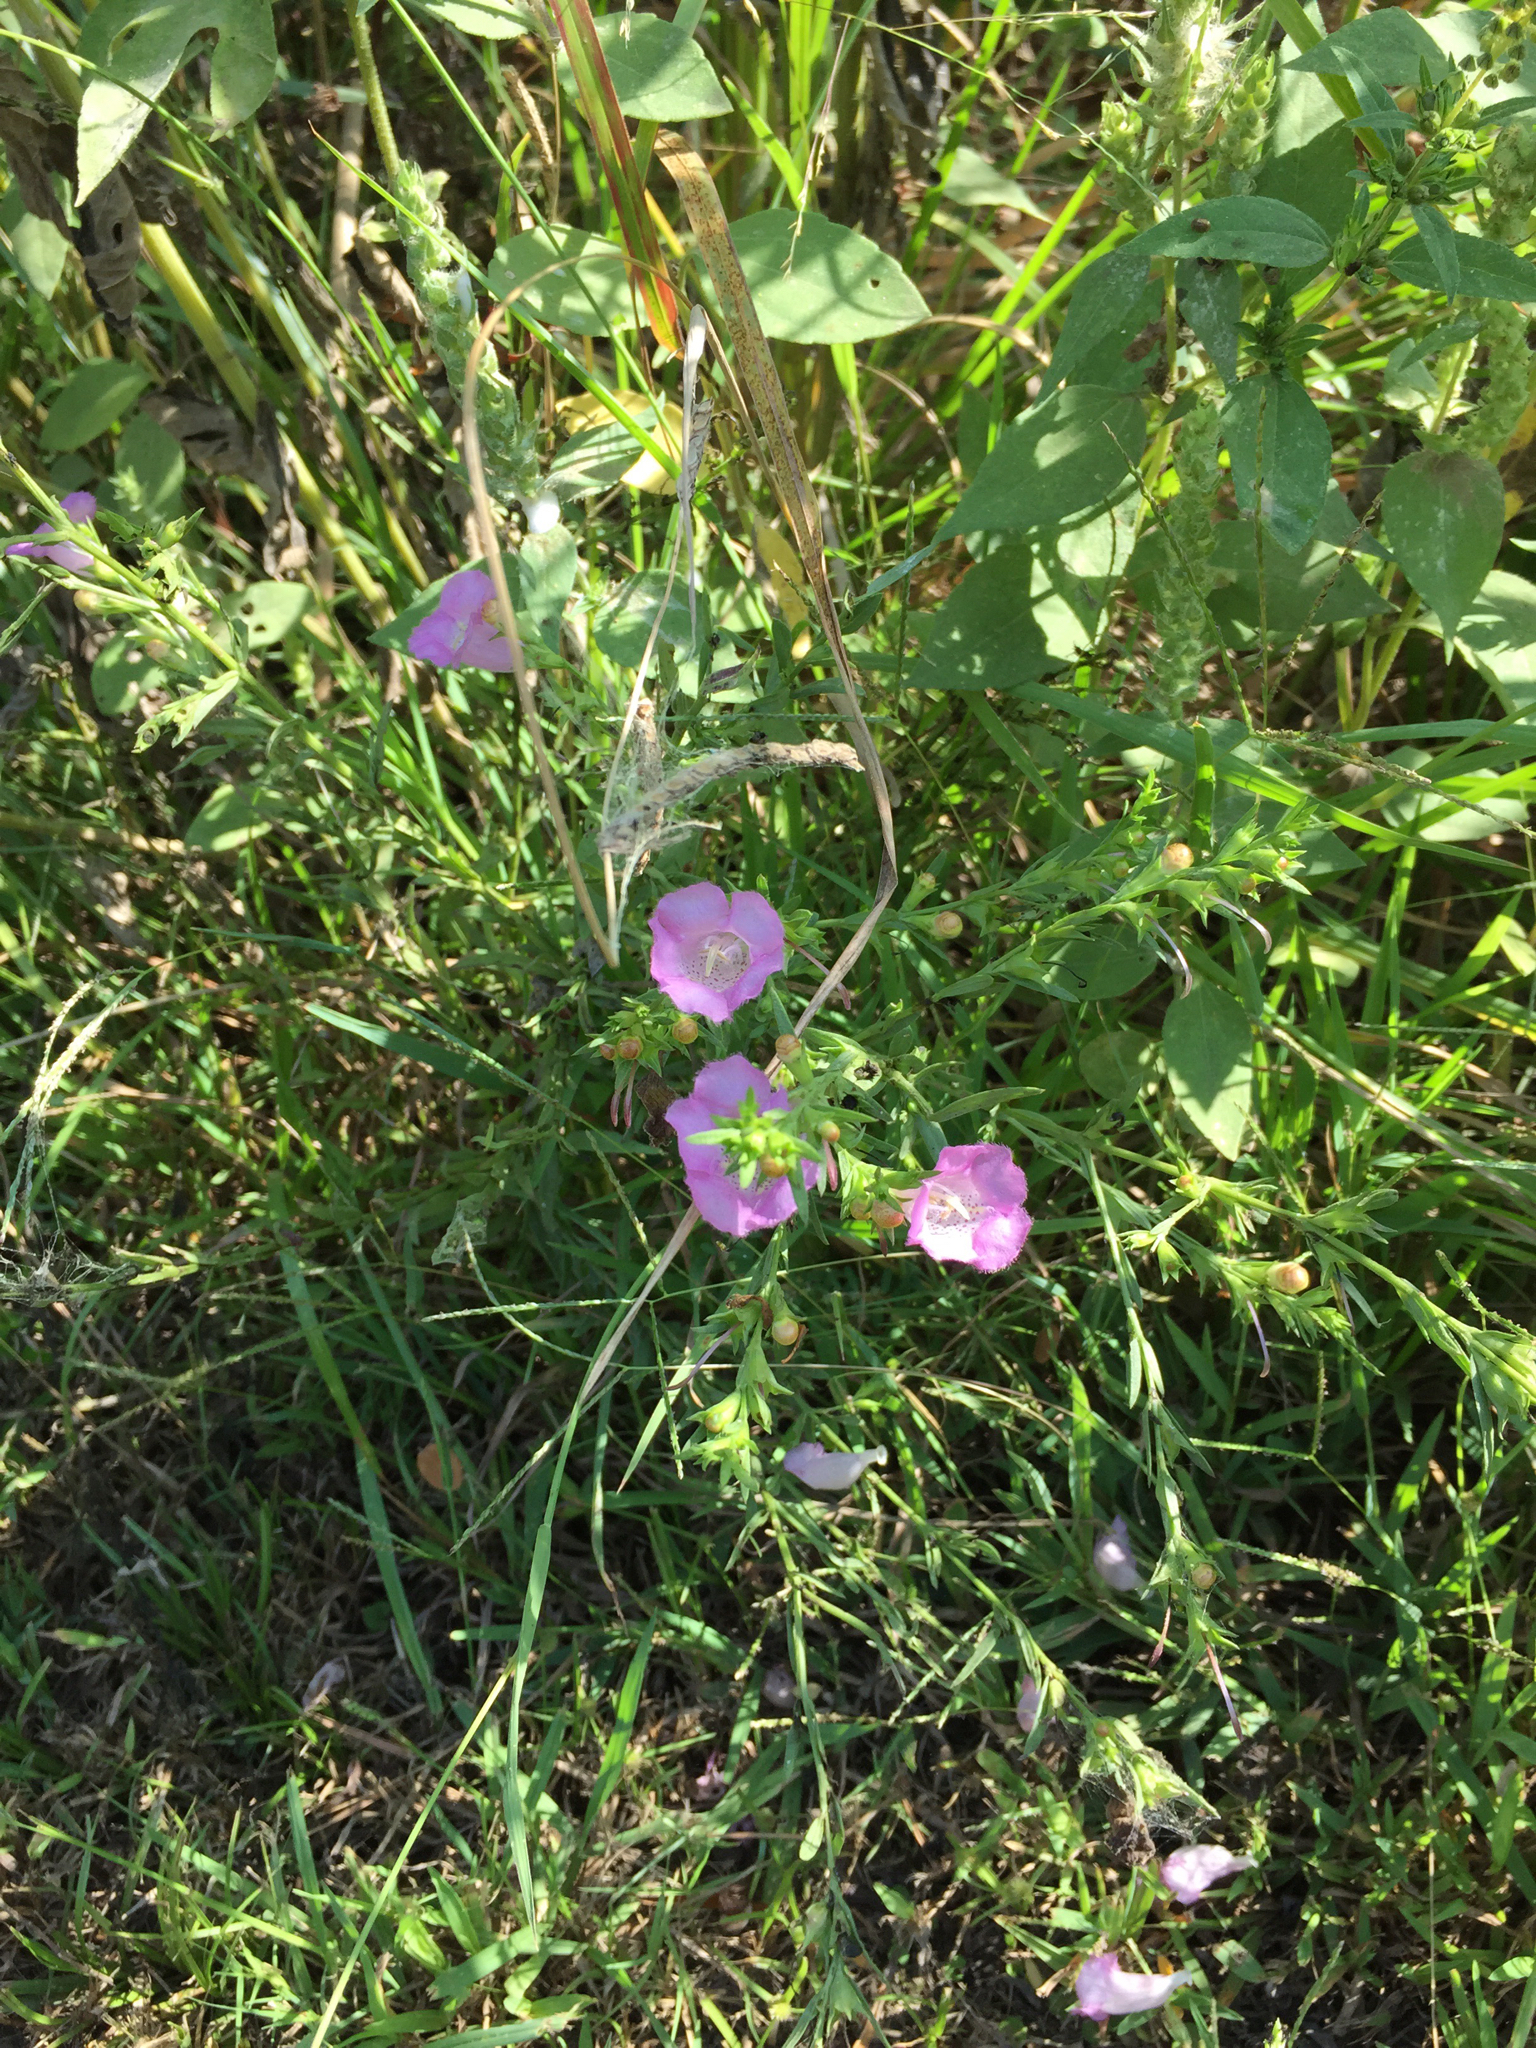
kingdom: Plantae
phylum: Tracheophyta
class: Magnoliopsida
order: Lamiales
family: Orobanchaceae
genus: Agalinis
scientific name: Agalinis heterophylla
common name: Prairie agalinis
